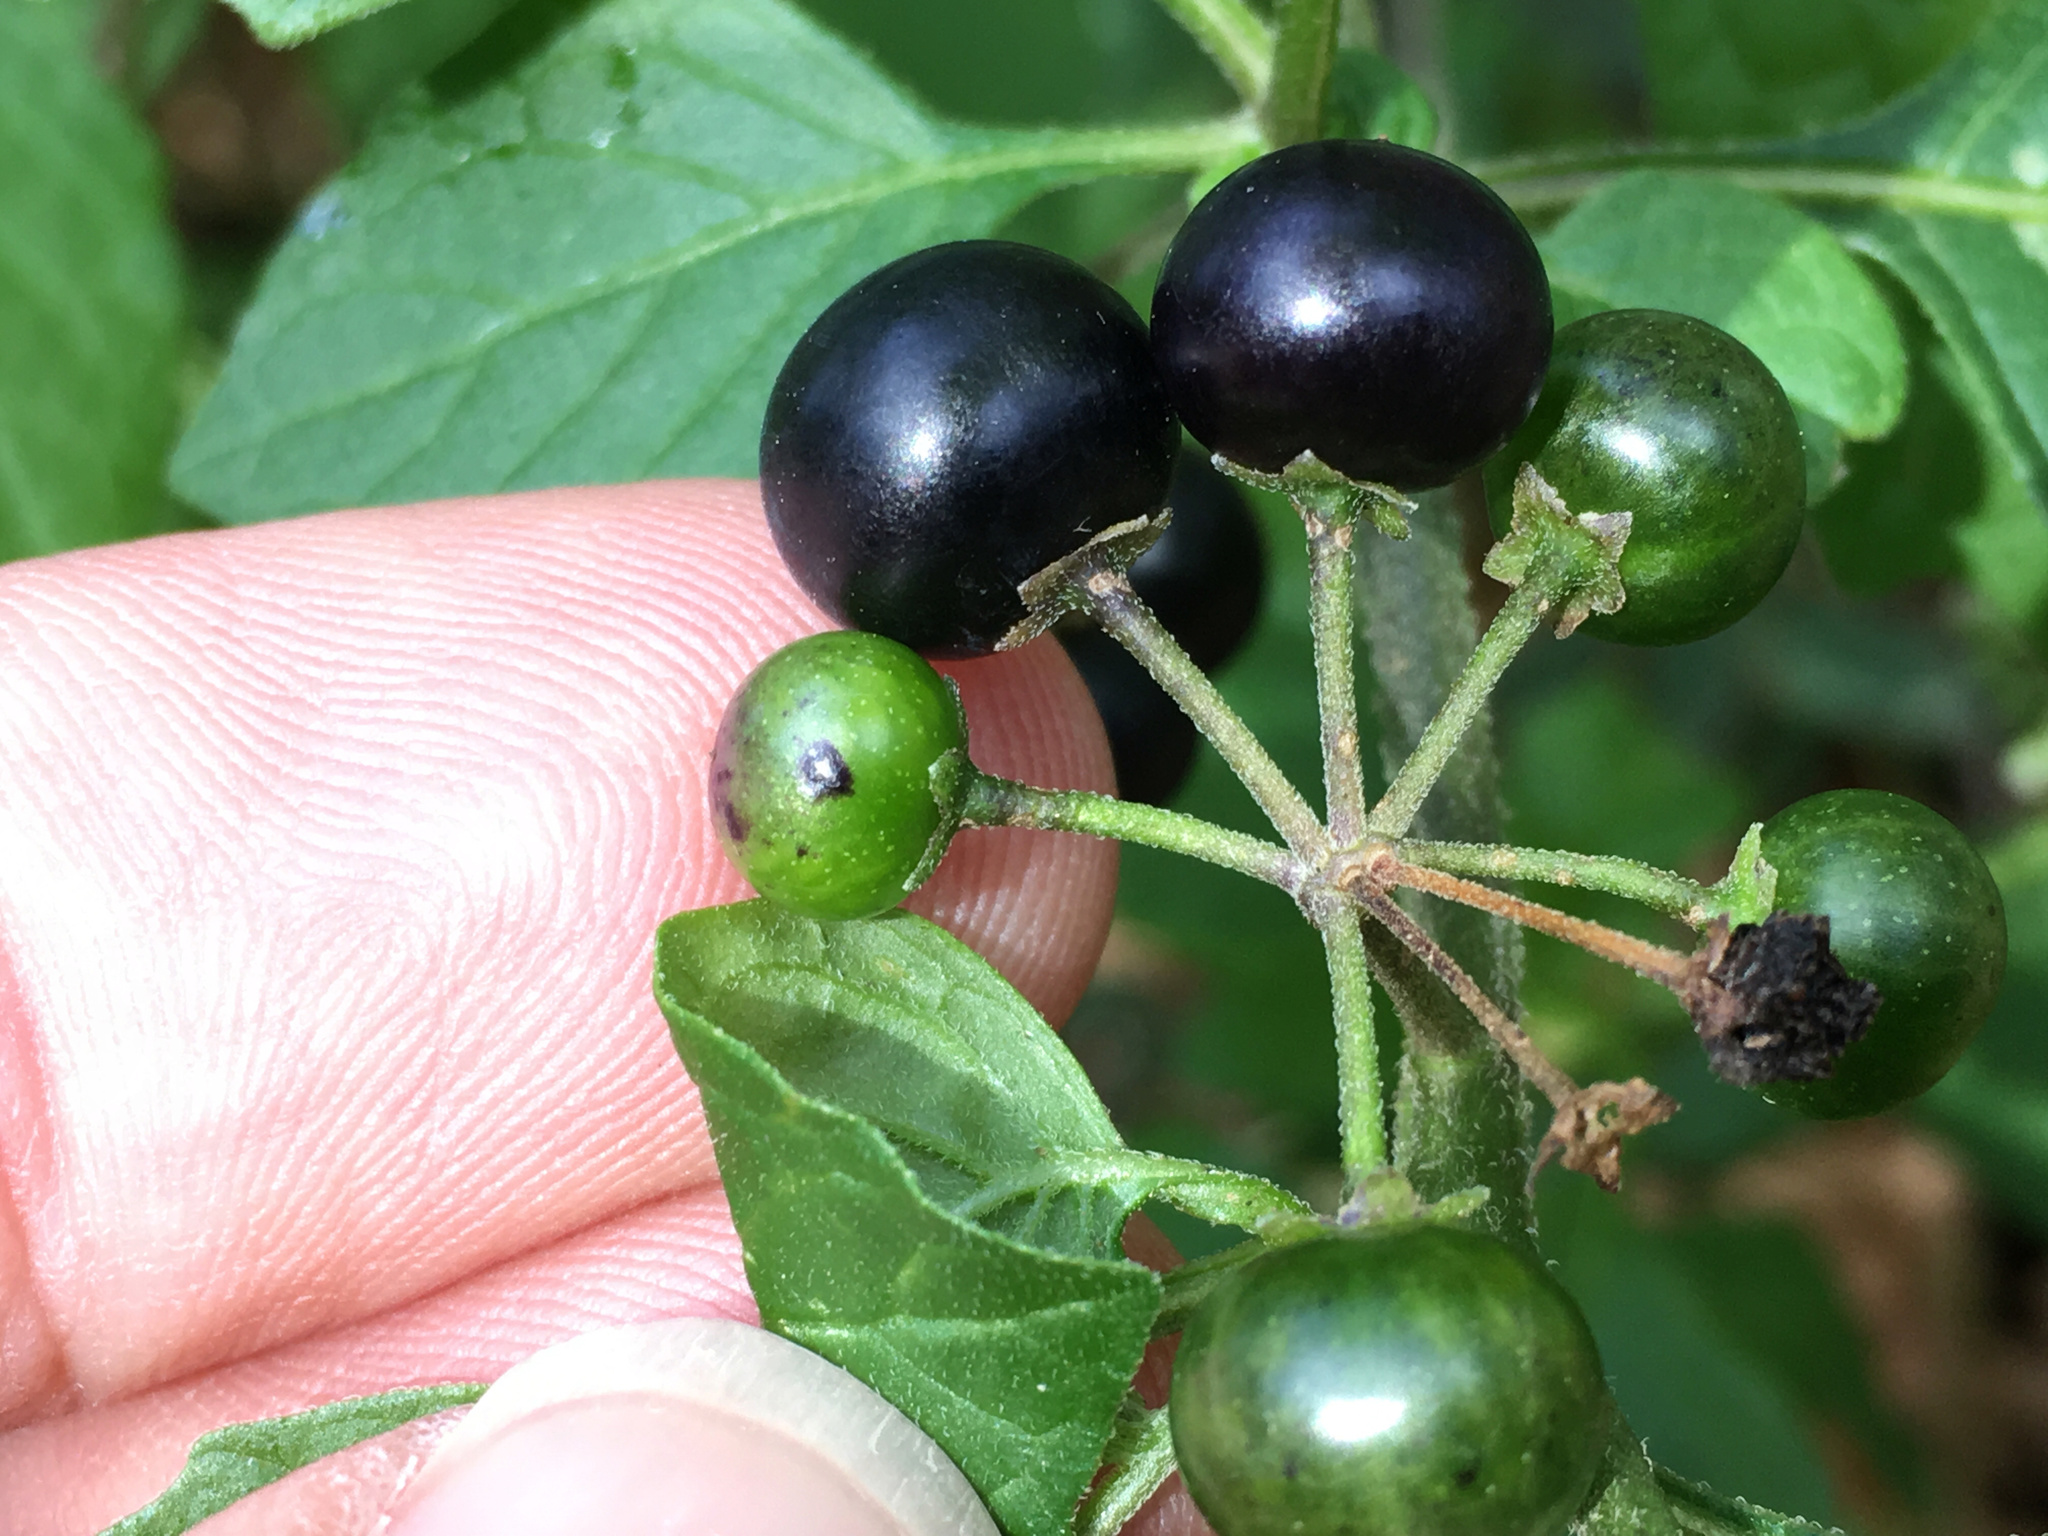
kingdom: Plantae
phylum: Tracheophyta
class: Magnoliopsida
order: Solanales
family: Solanaceae
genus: Solanum
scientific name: Solanum douglasii
